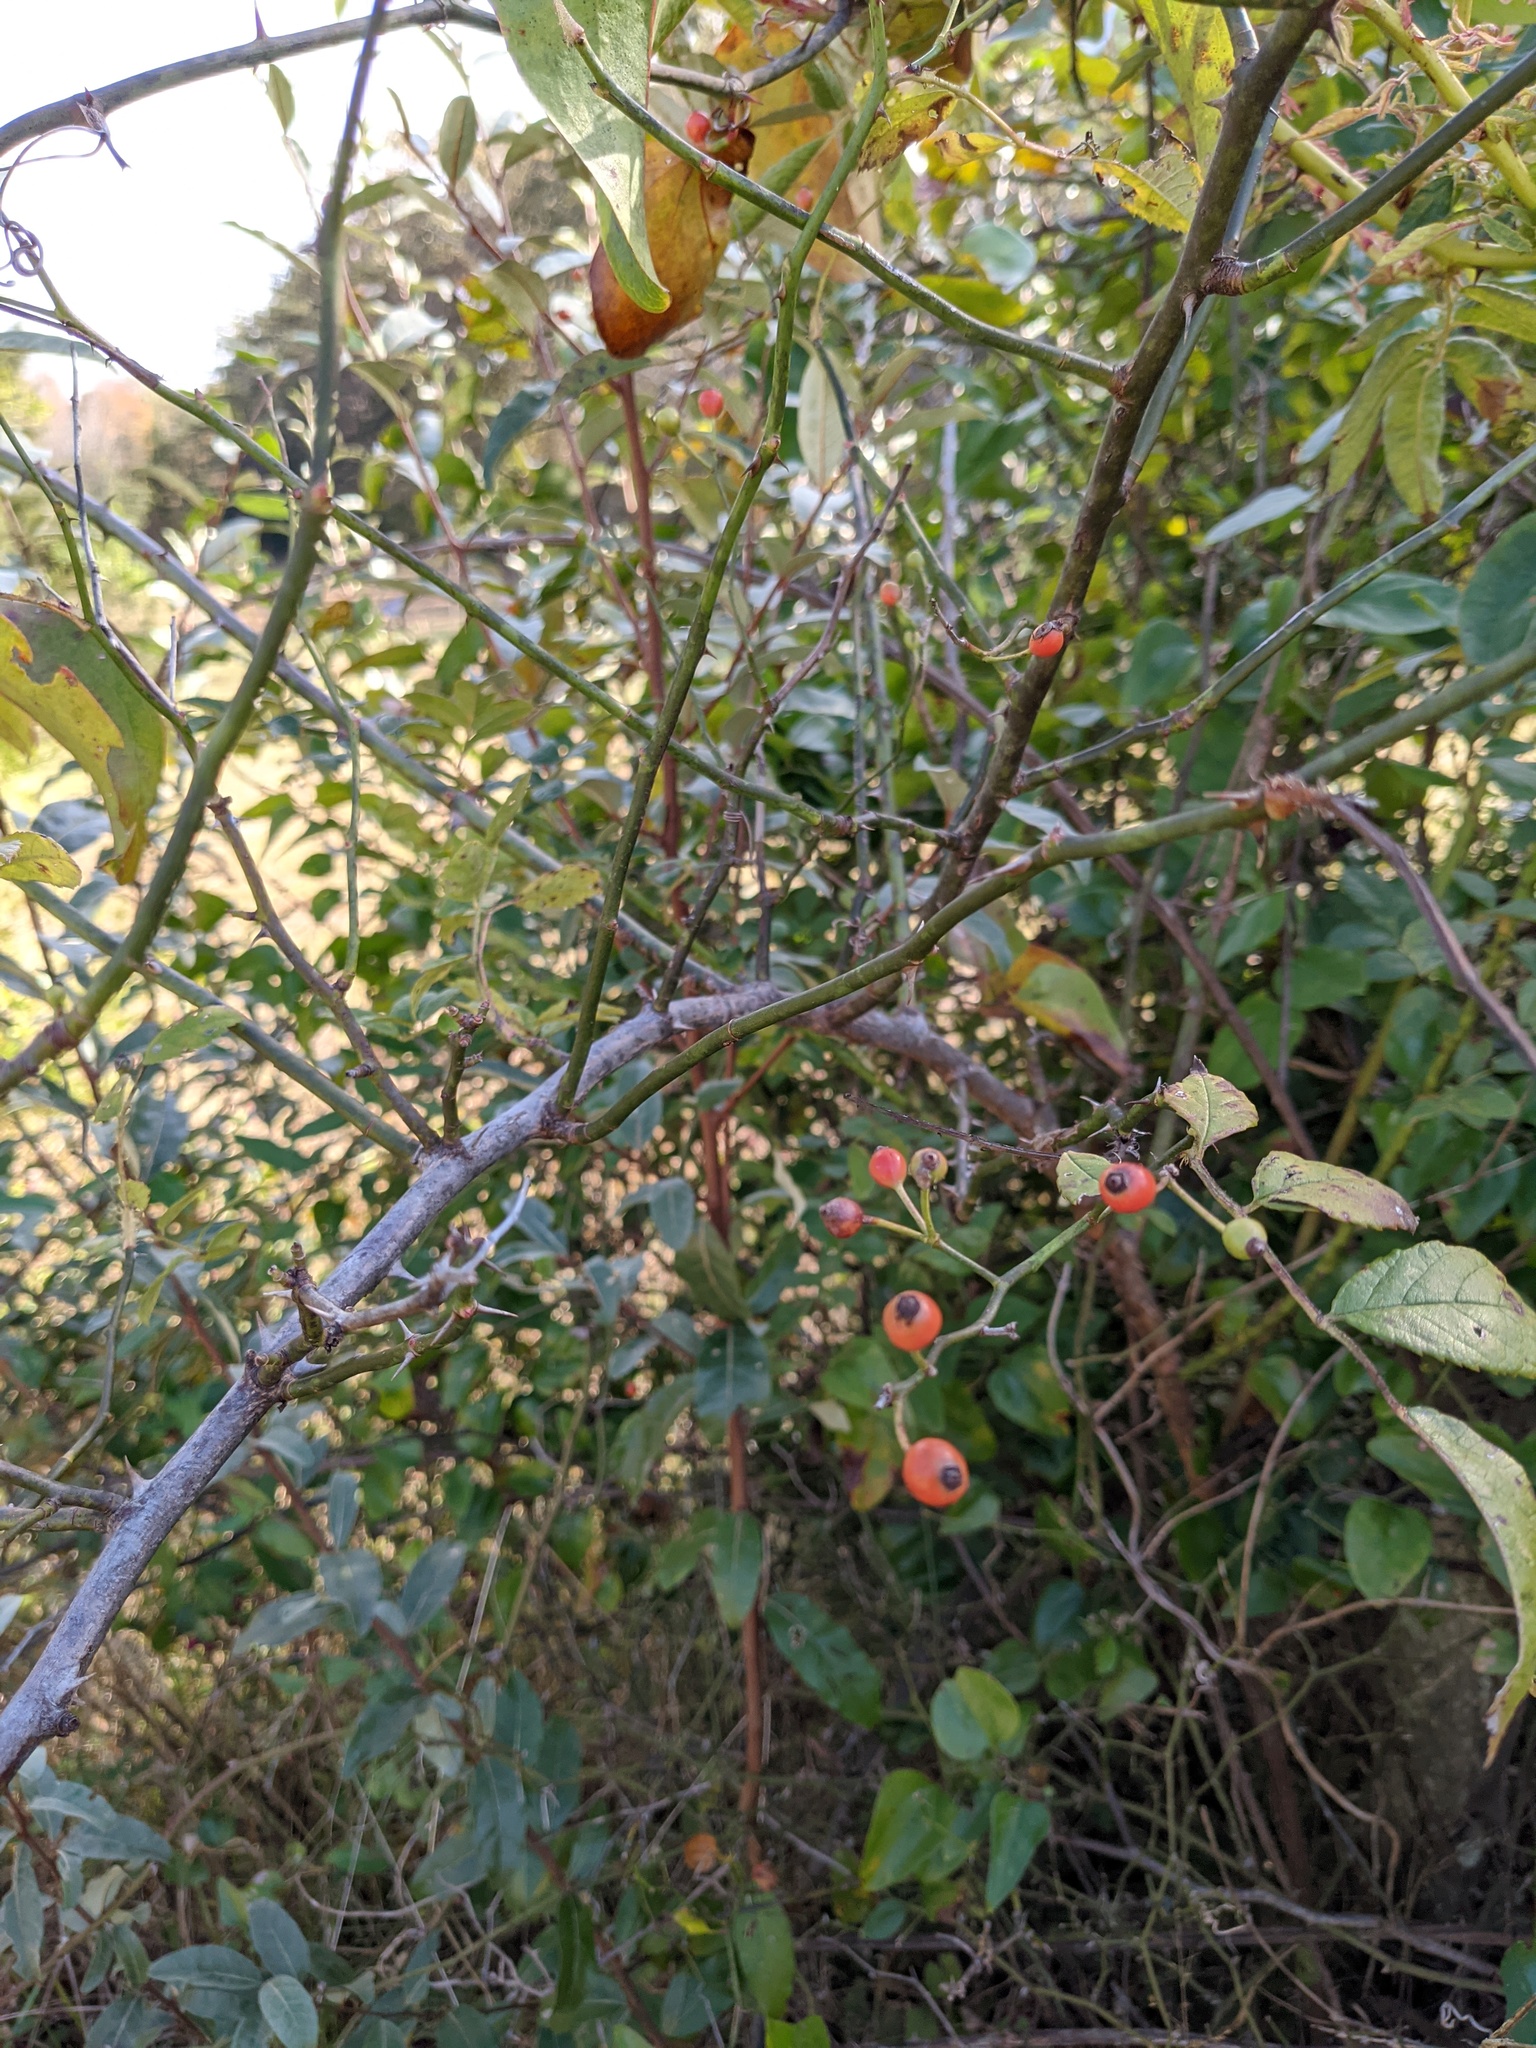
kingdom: Plantae
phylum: Tracheophyta
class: Magnoliopsida
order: Rosales
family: Rosaceae
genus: Rosa
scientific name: Rosa multiflora
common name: Multiflora rose
